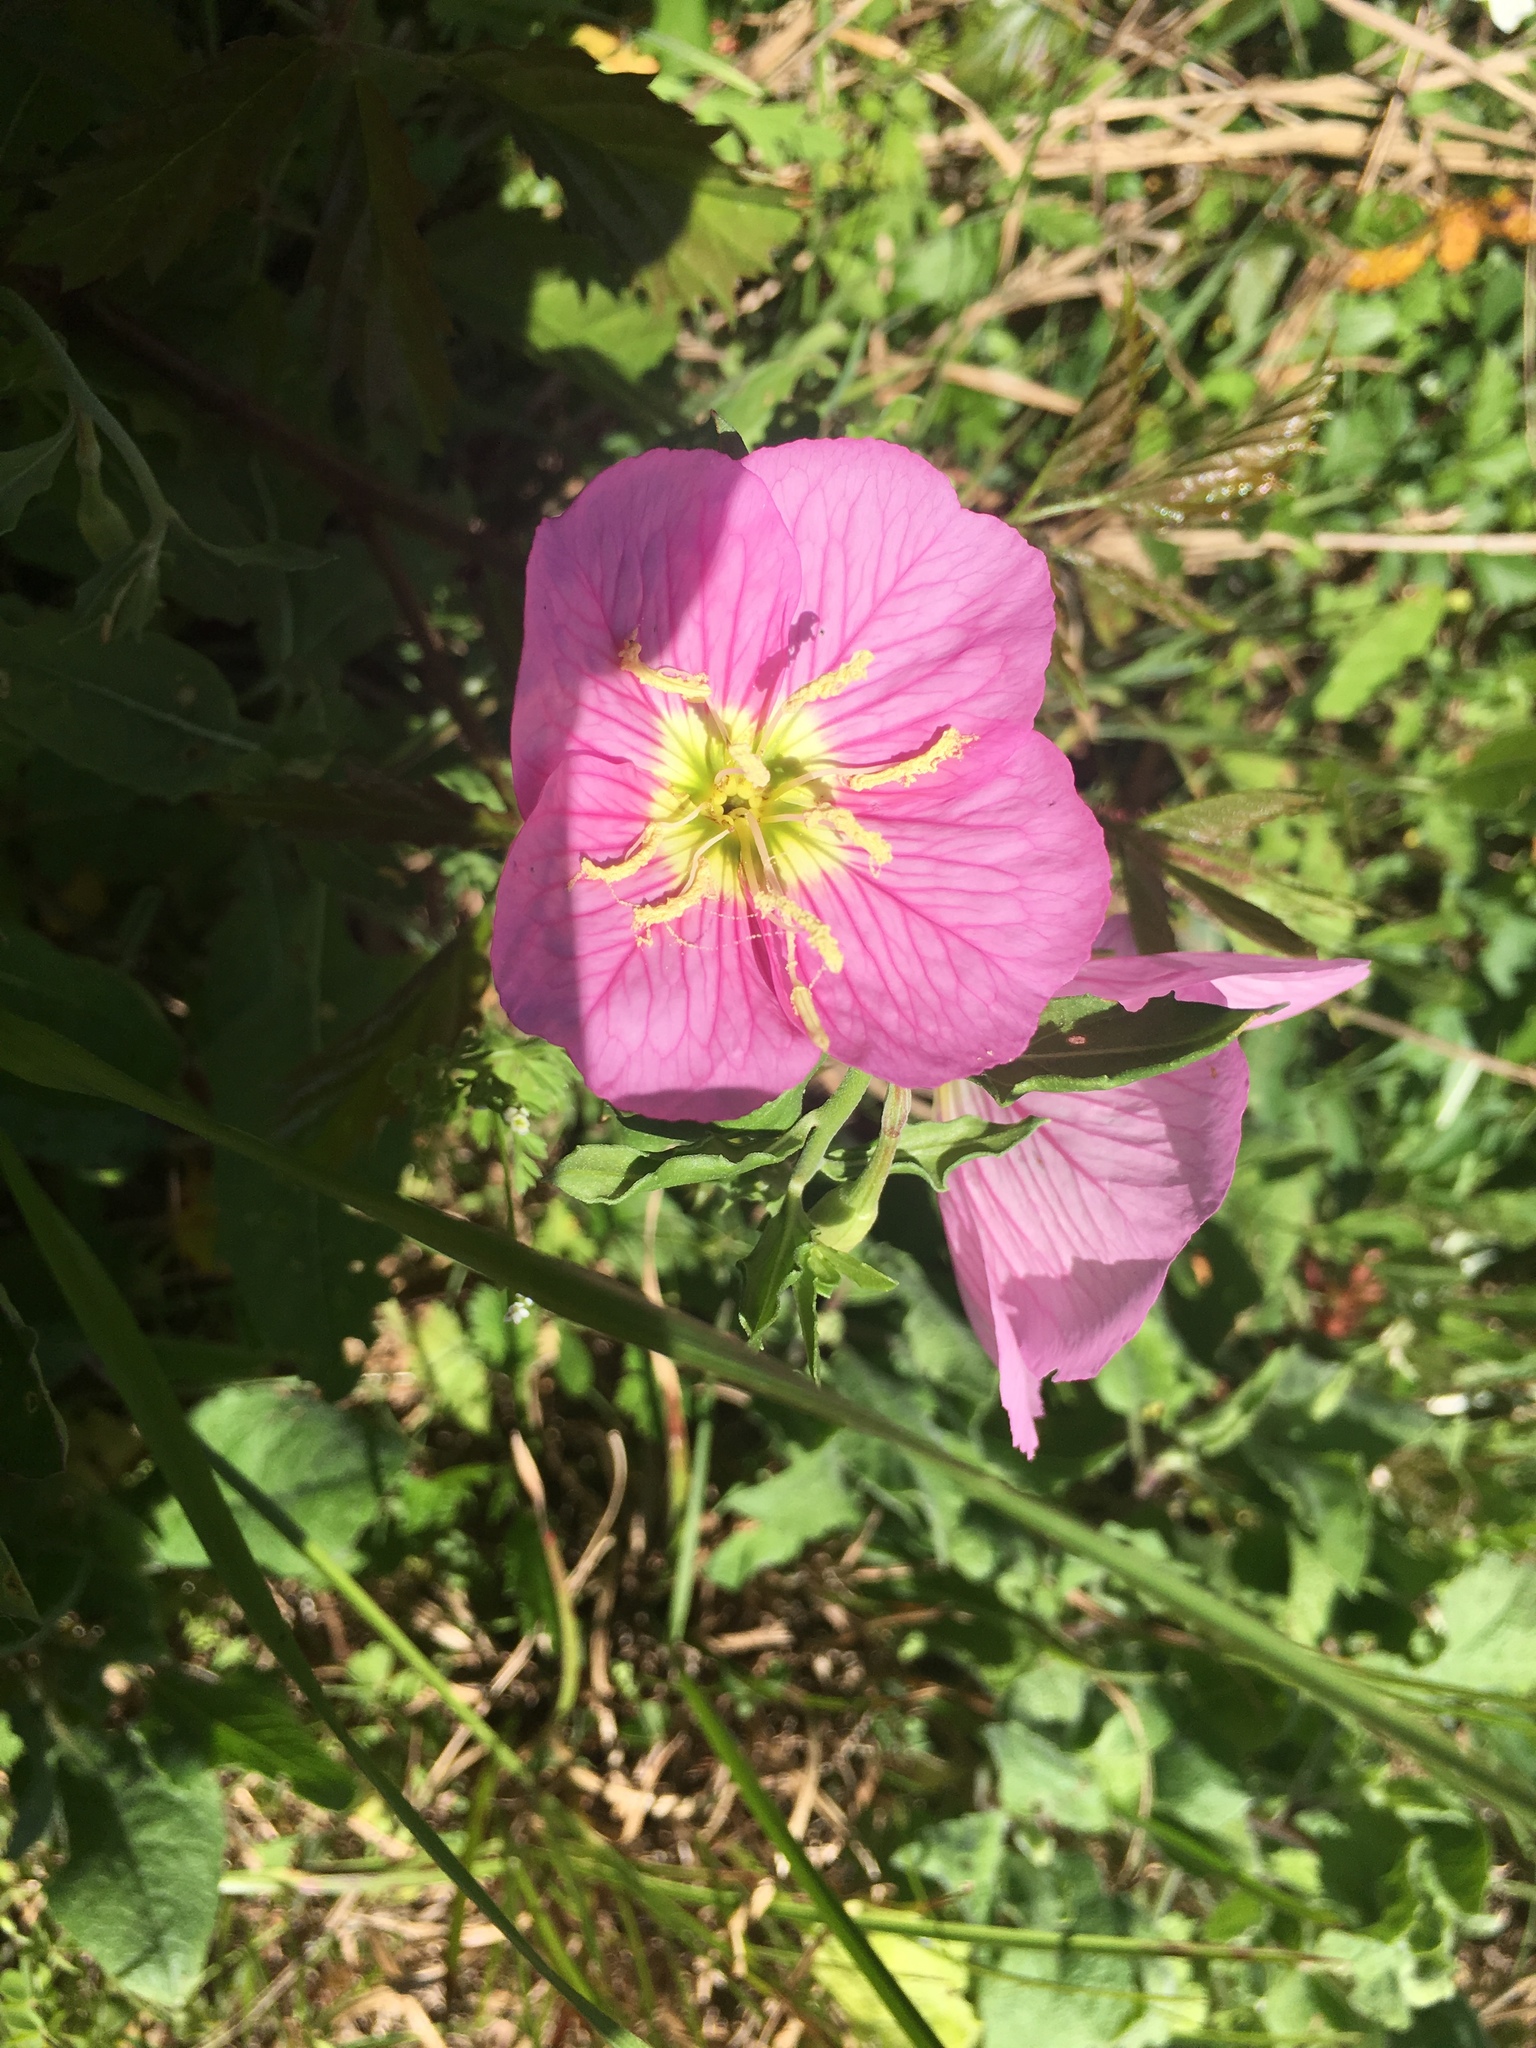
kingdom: Plantae
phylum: Tracheophyta
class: Magnoliopsida
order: Myrtales
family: Onagraceae
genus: Oenothera
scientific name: Oenothera speciosa
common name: White evening-primrose
